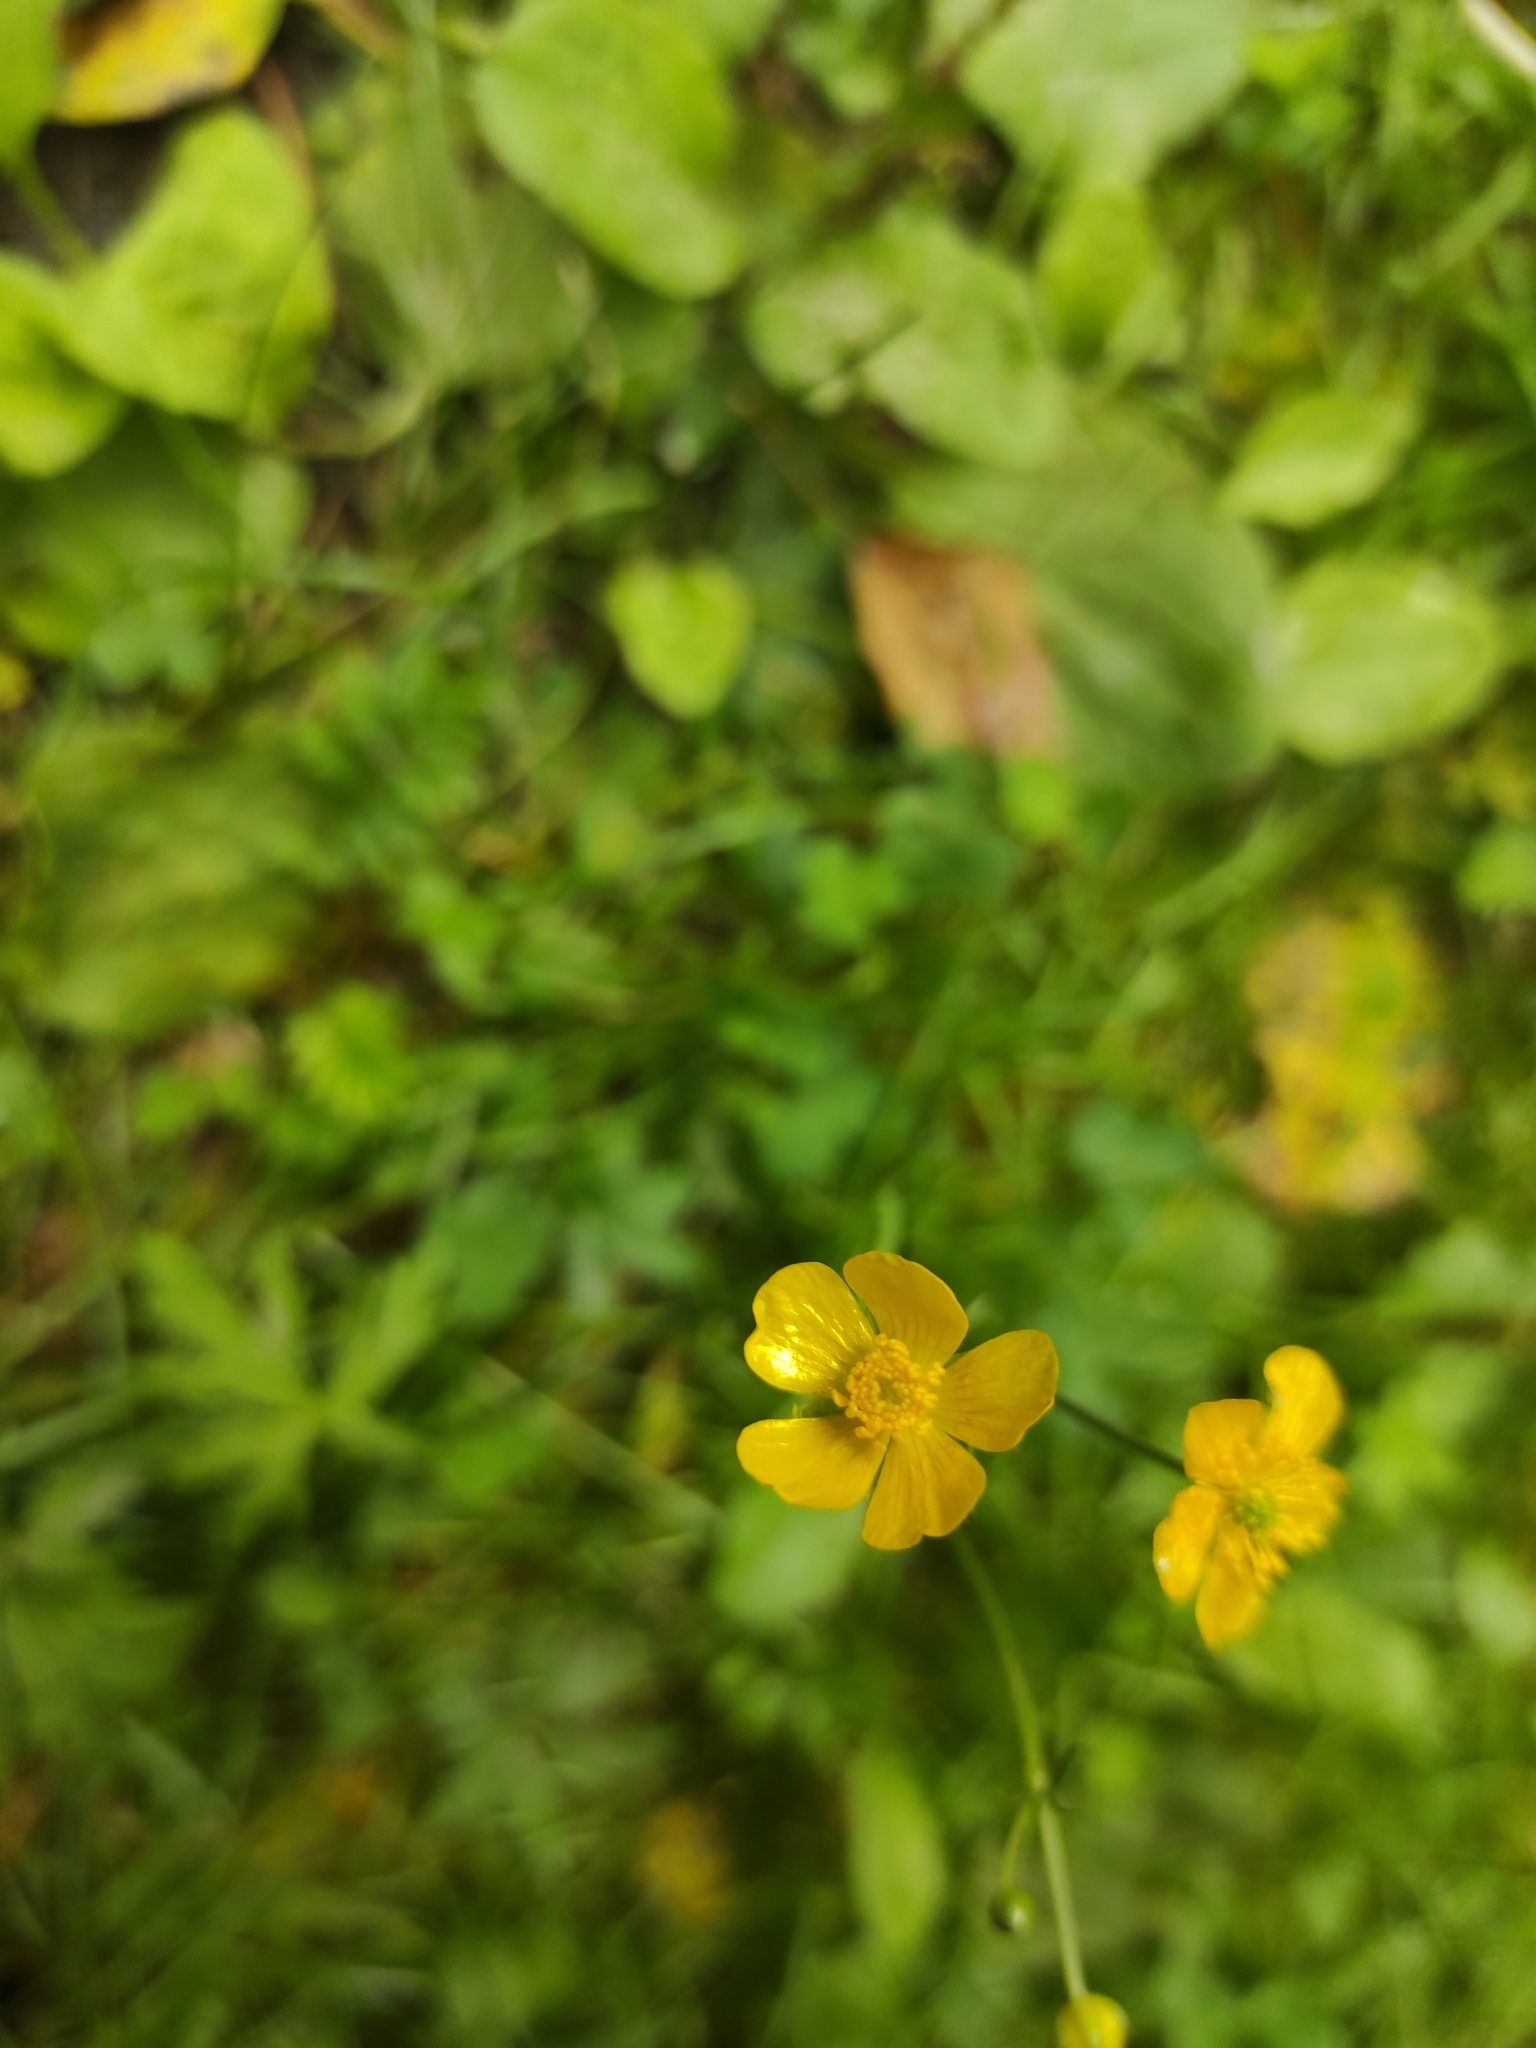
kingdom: Plantae
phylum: Tracheophyta
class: Magnoliopsida
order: Ranunculales
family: Ranunculaceae
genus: Ranunculus
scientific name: Ranunculus acris
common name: Meadow buttercup
